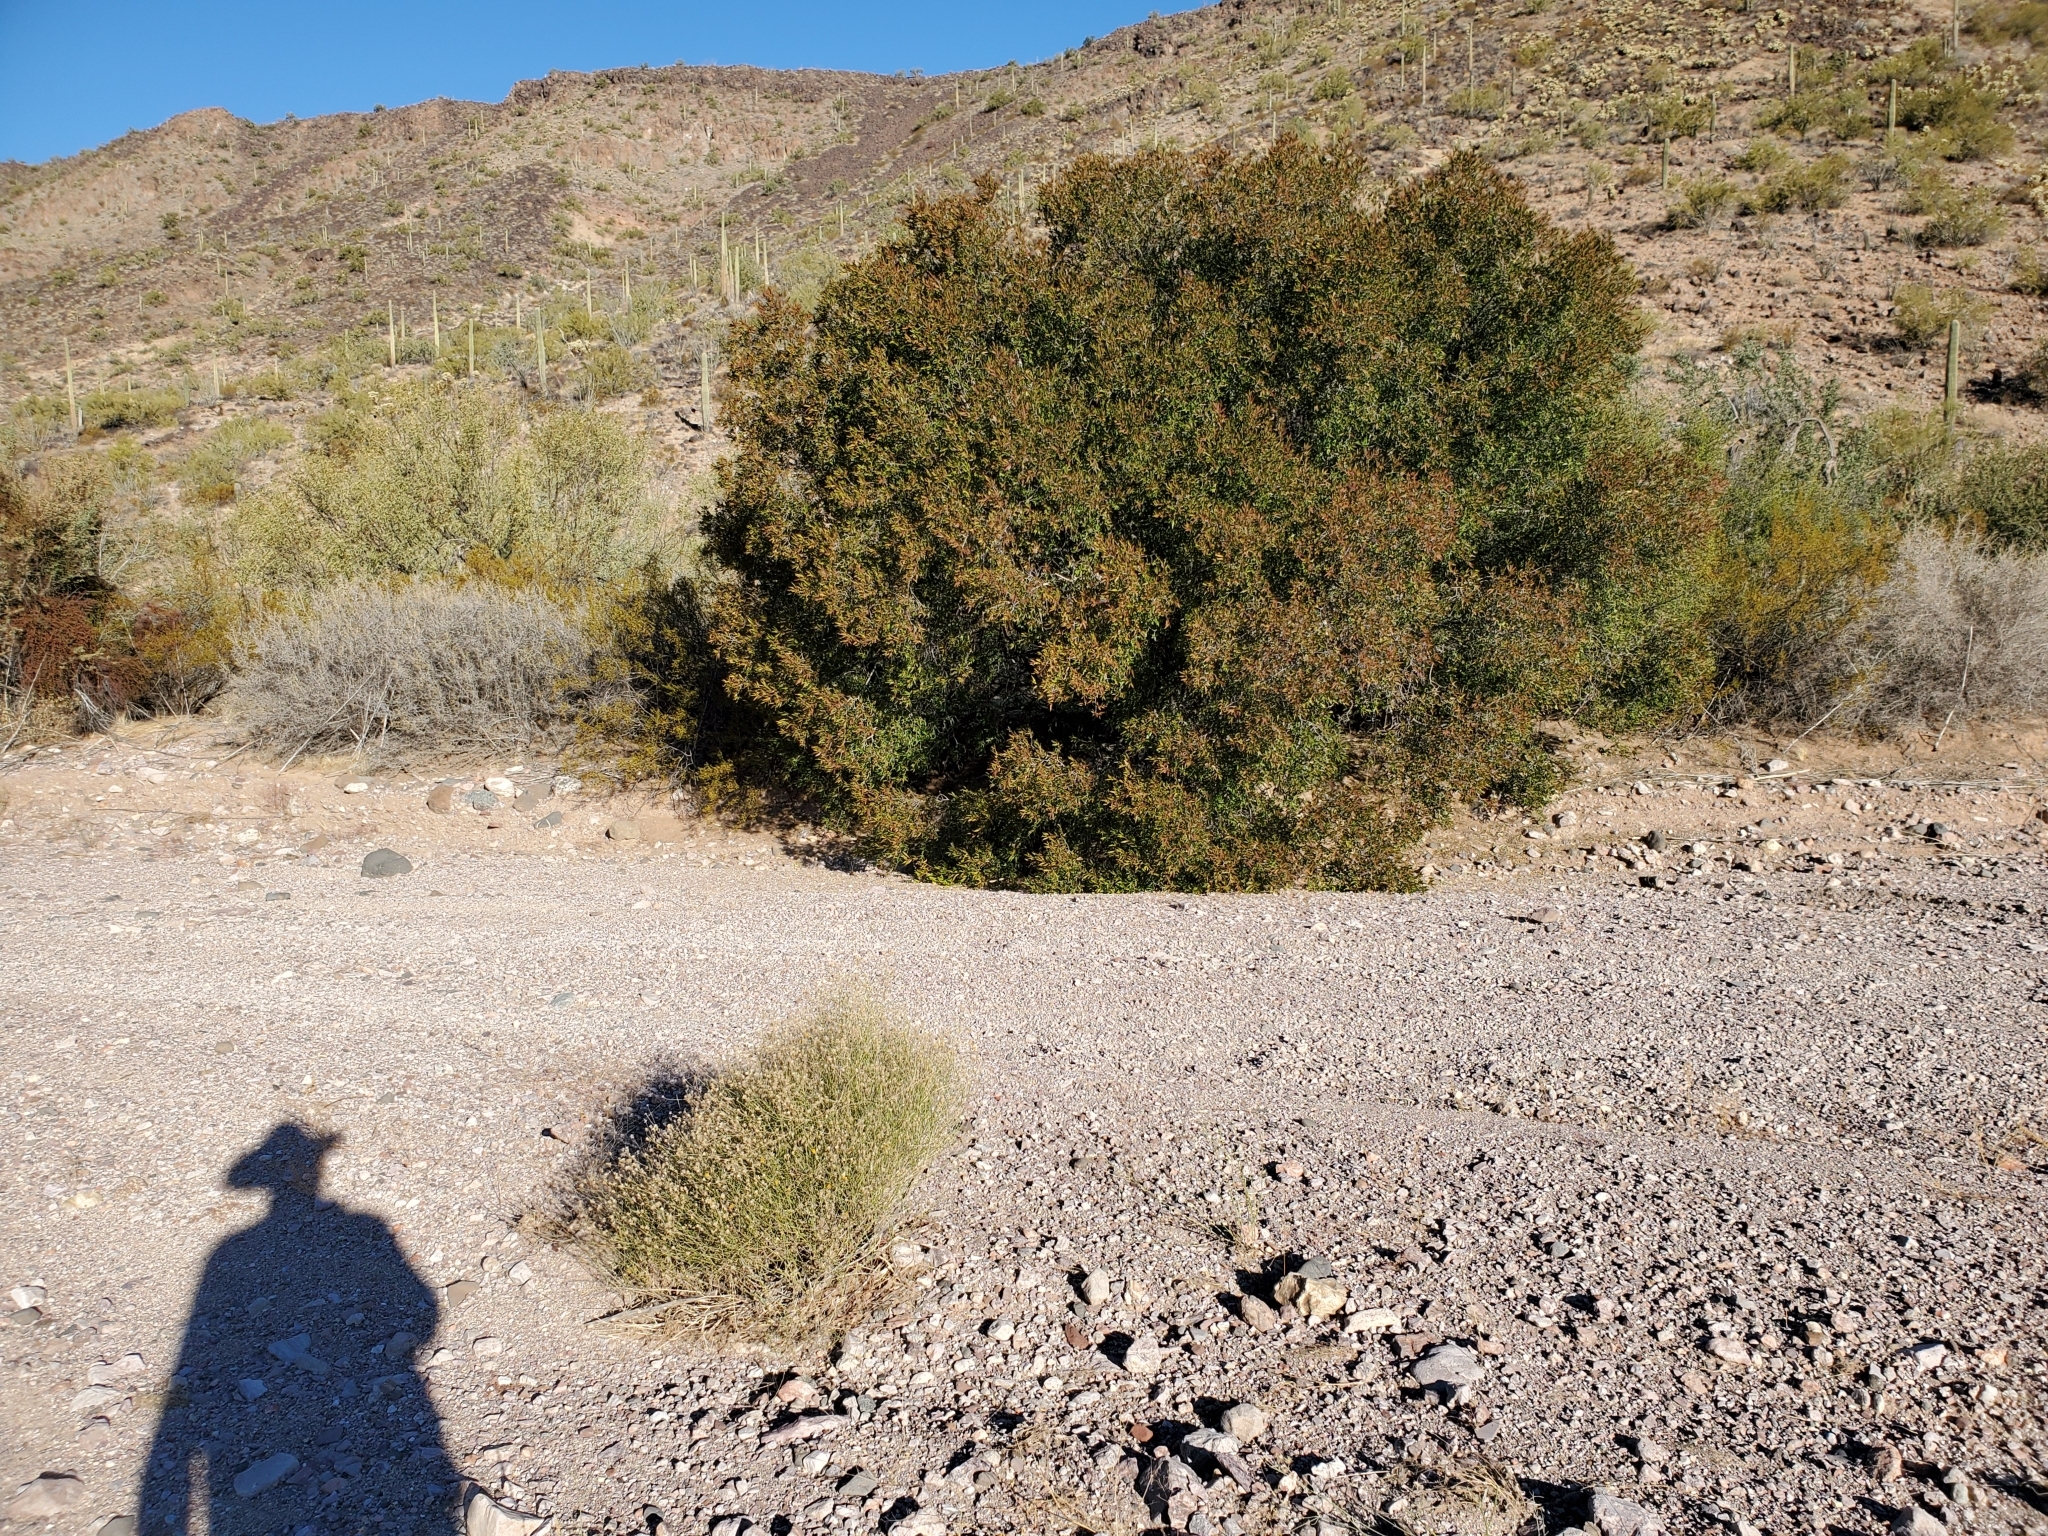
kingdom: Plantae
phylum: Tracheophyta
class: Magnoliopsida
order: Malpighiales
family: Euphorbiaceae
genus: Pleradenophora
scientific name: Pleradenophora bilocularis
